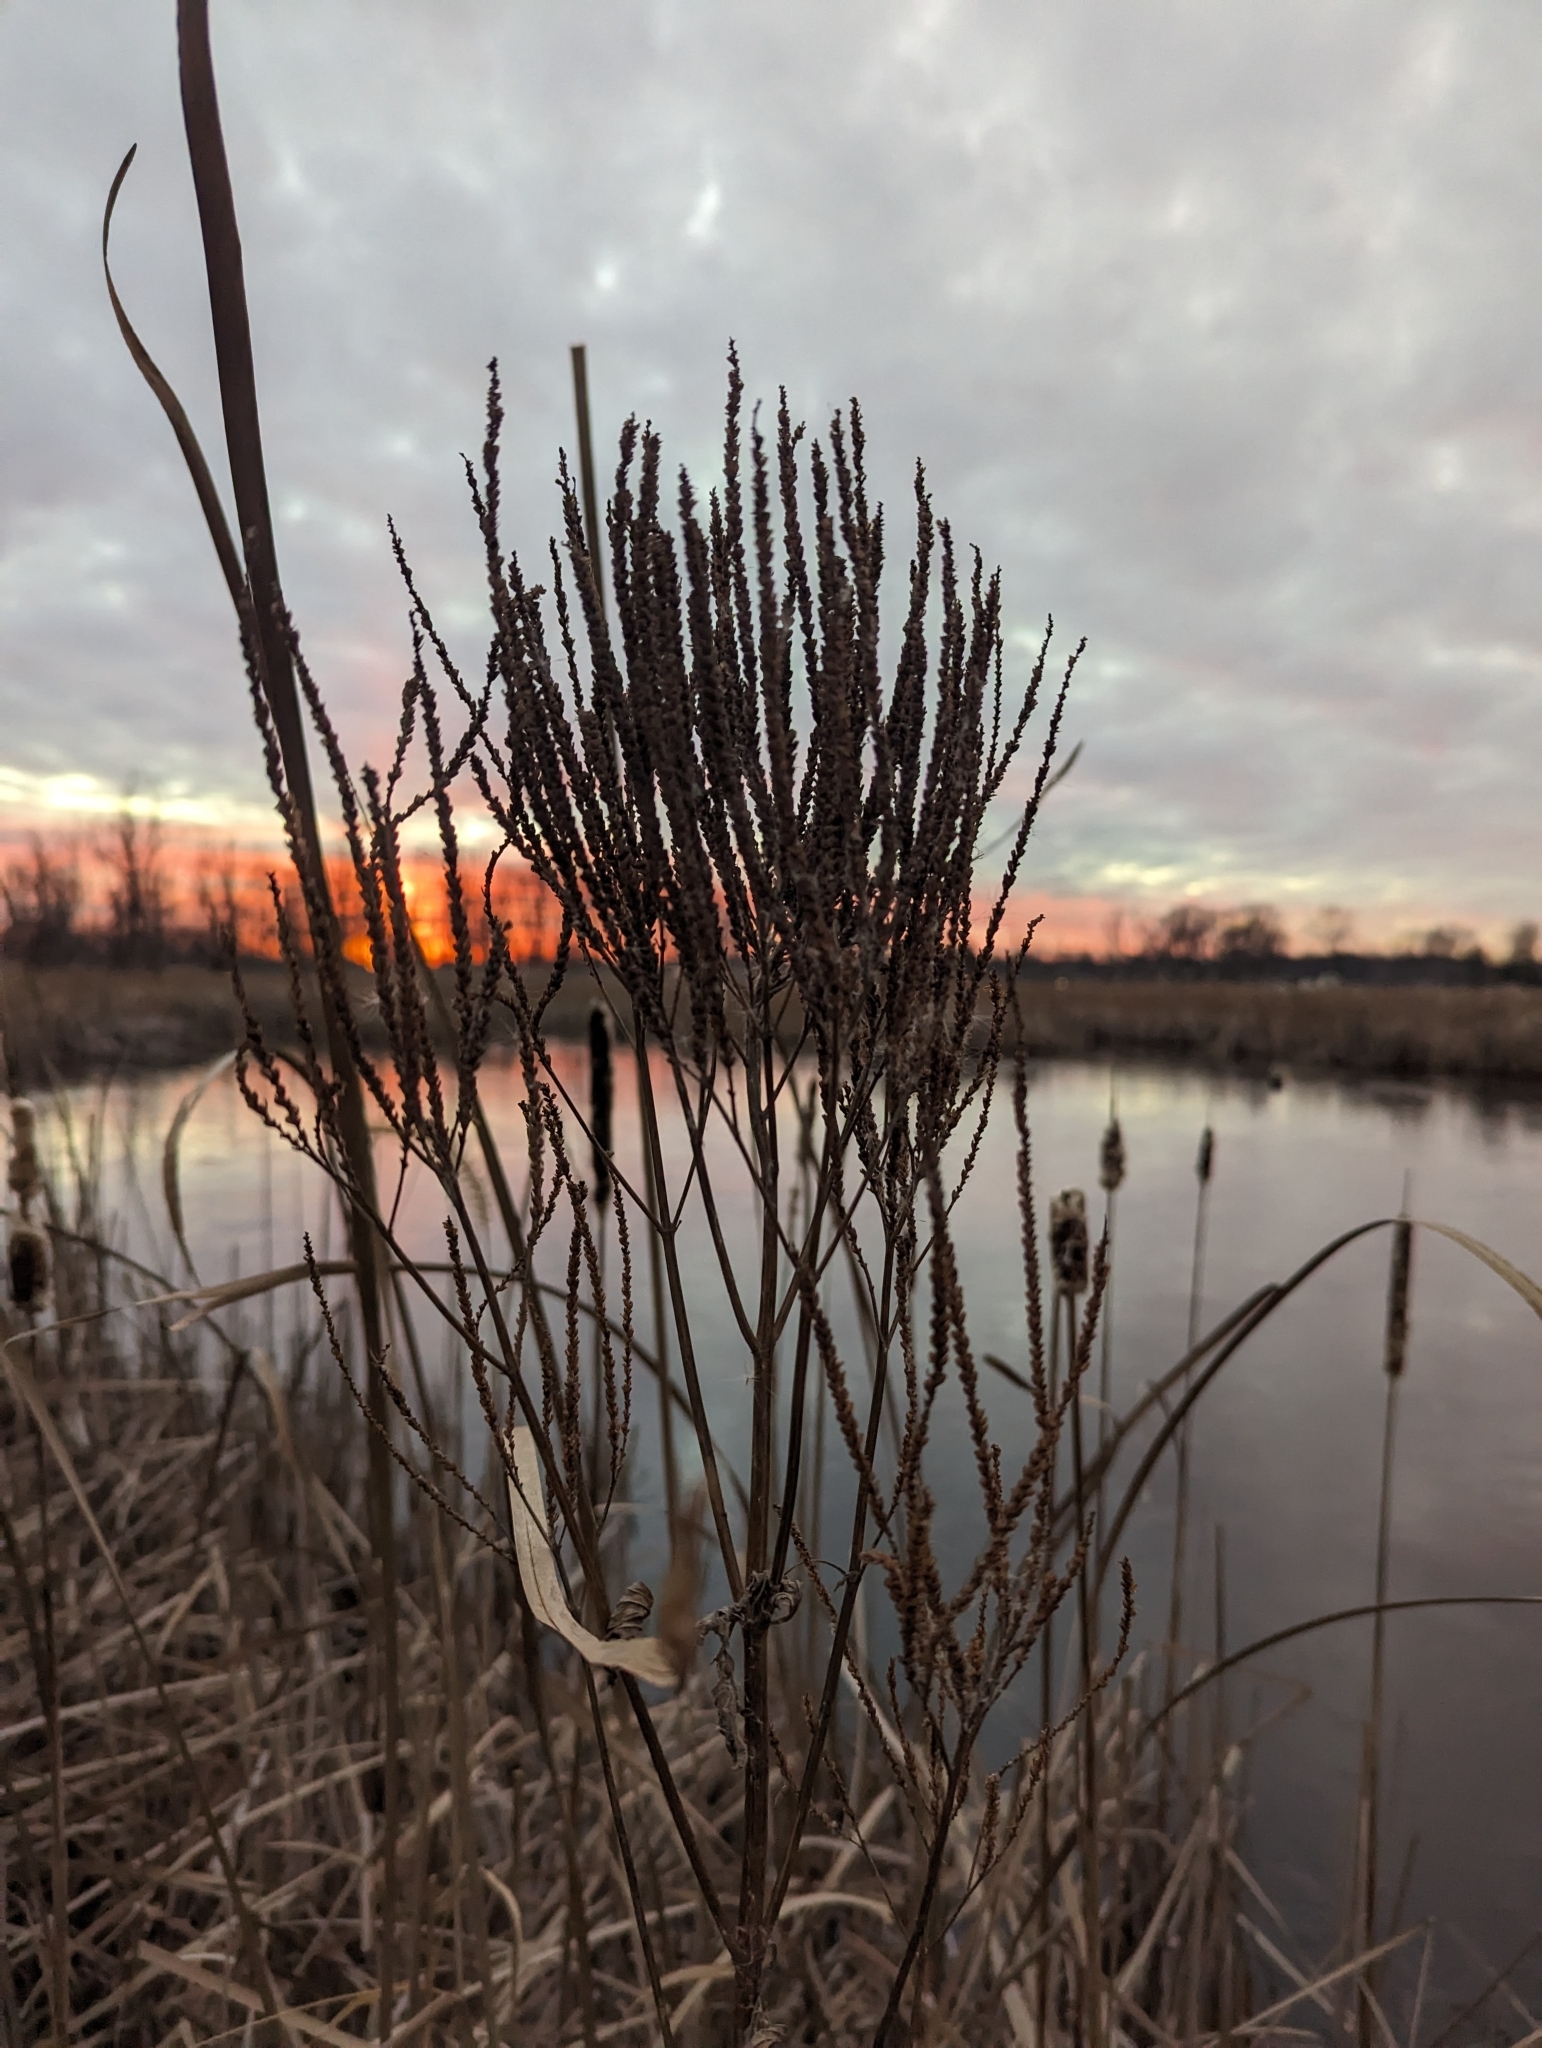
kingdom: Plantae
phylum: Tracheophyta
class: Magnoliopsida
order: Lamiales
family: Verbenaceae
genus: Verbena
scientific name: Verbena hastata
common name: American blue vervain
